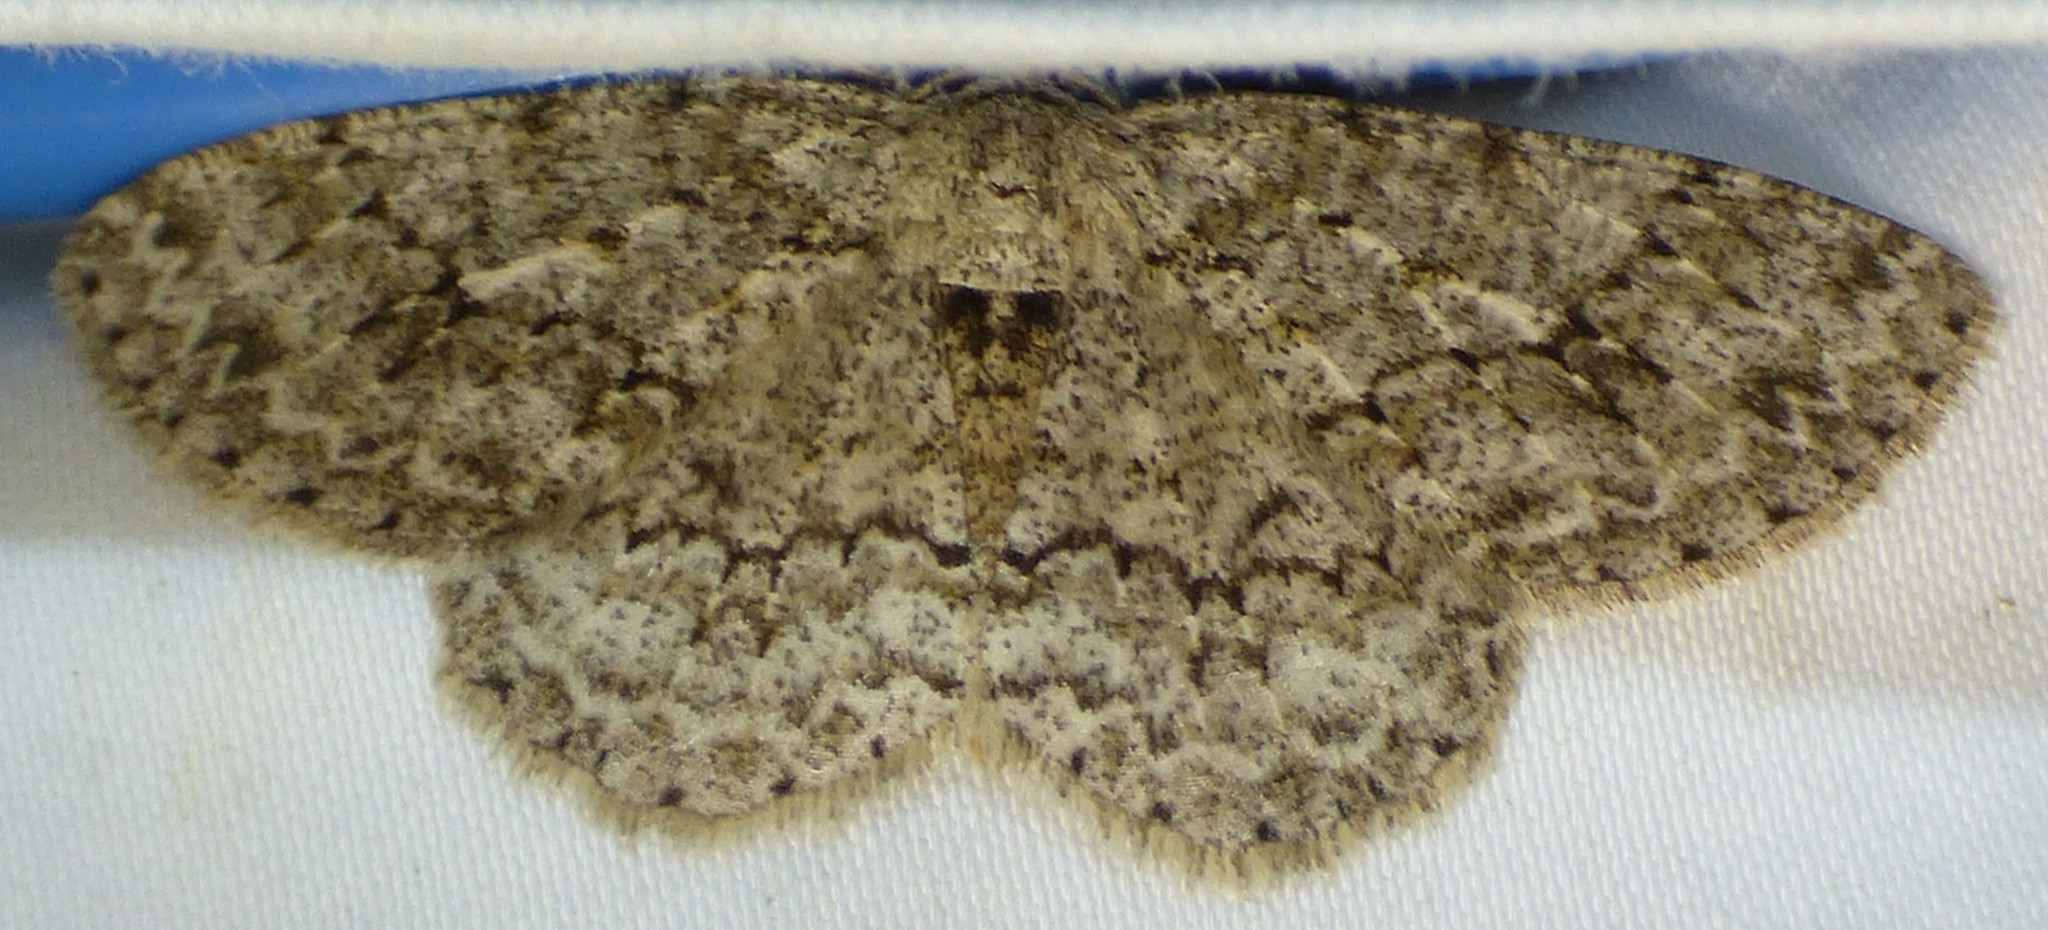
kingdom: Animalia
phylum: Arthropoda
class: Insecta
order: Lepidoptera
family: Geometridae
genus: Ectropis
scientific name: Ectropis crepuscularia
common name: Engrailed
